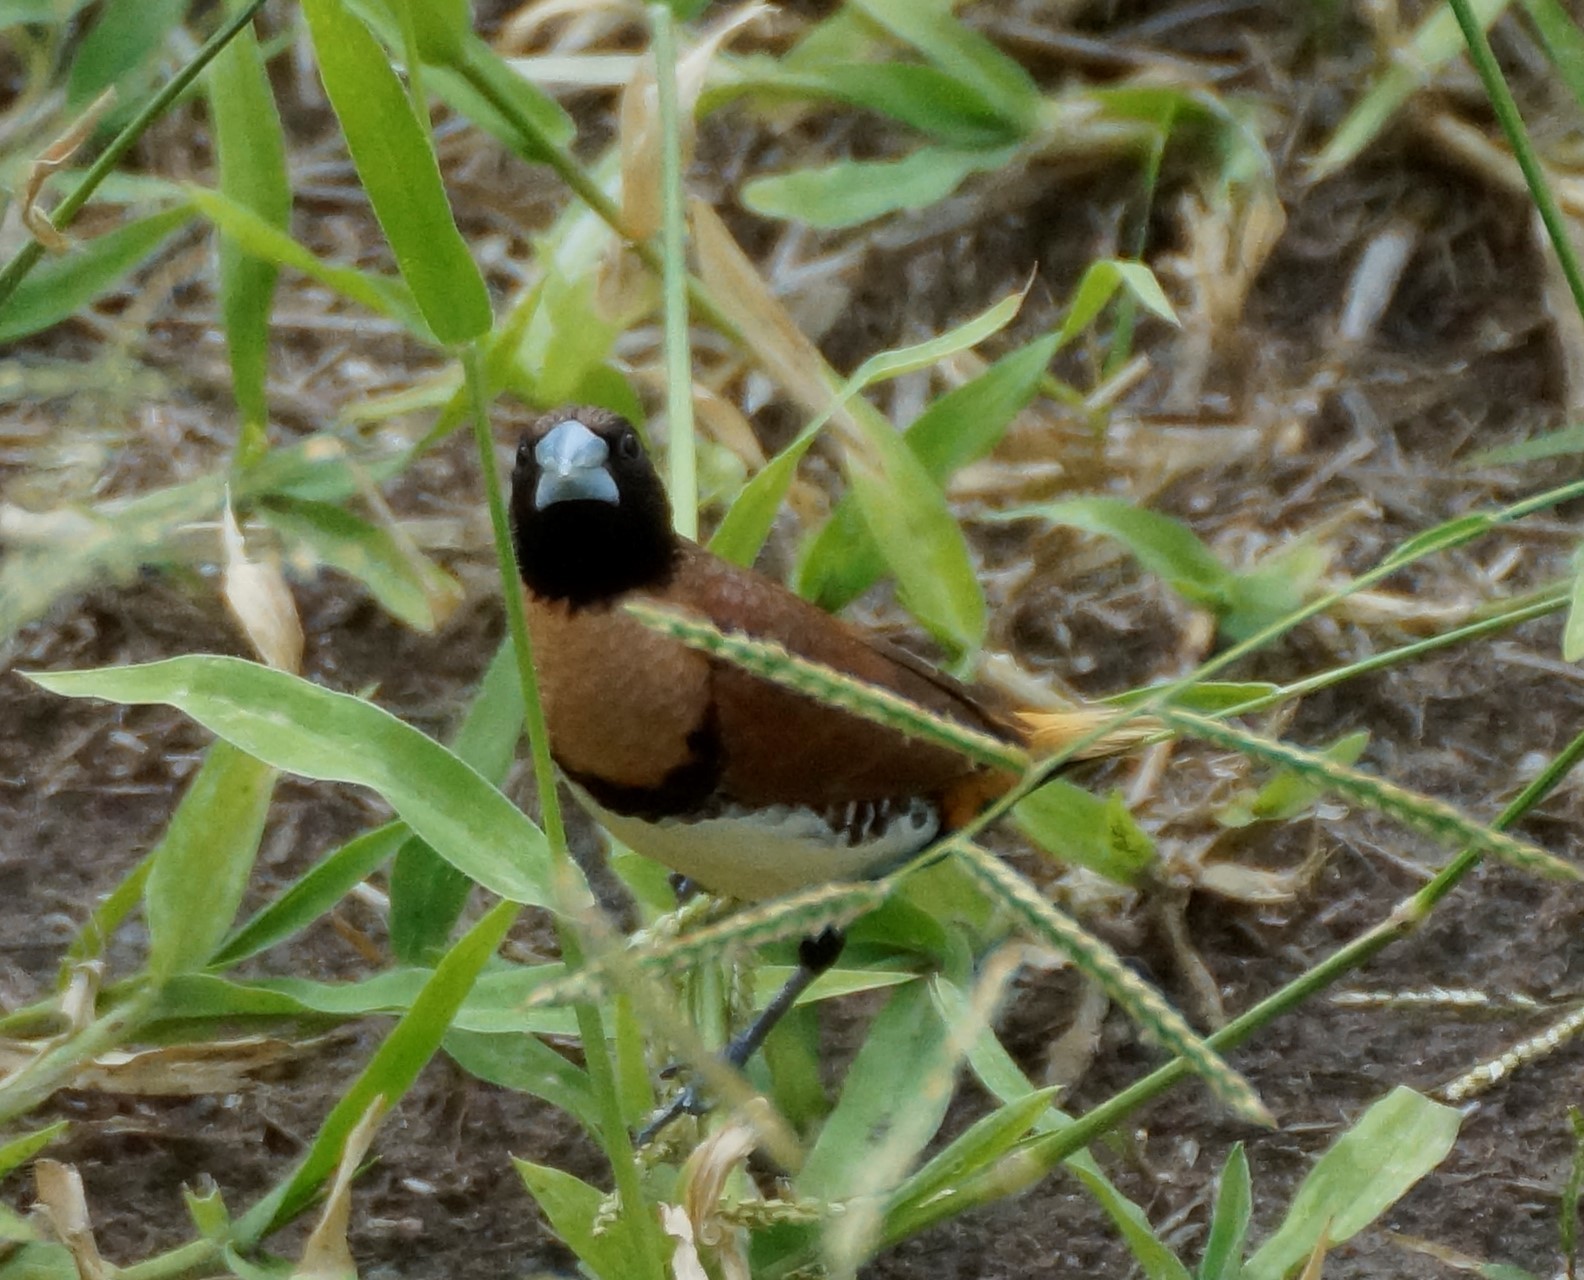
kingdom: Animalia
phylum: Chordata
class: Aves
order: Passeriformes
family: Estrildidae
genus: Lonchura
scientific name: Lonchura castaneothorax
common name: Chestnut-breasted mannikin
